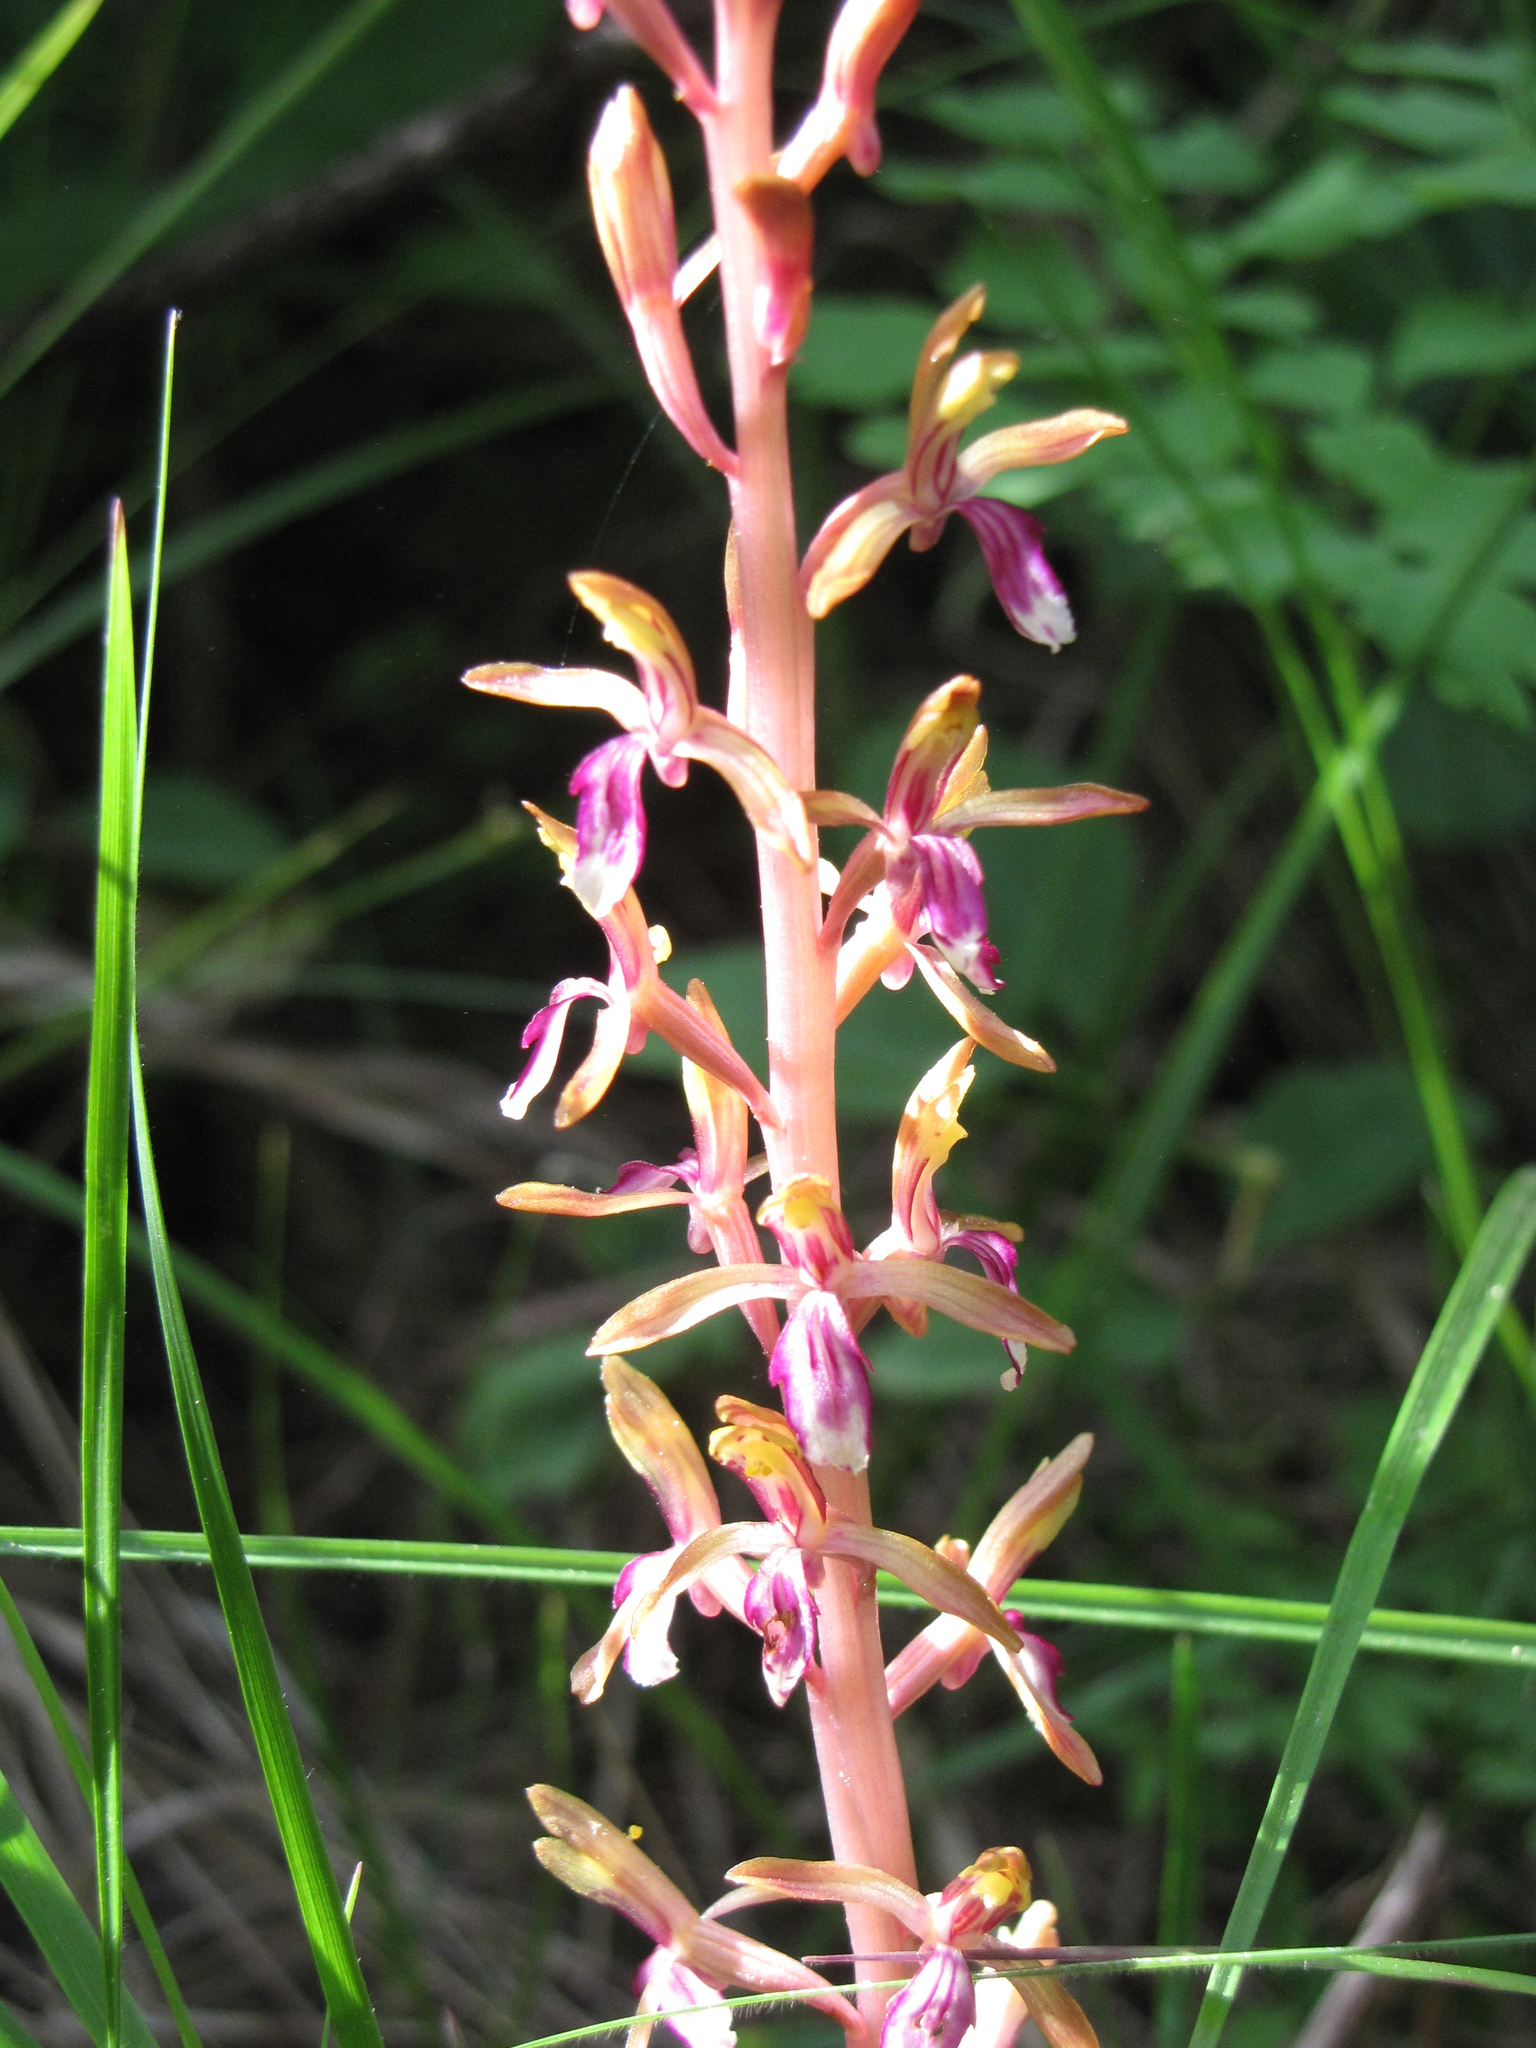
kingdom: Plantae
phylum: Tracheophyta
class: Liliopsida
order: Asparagales
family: Orchidaceae
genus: Corallorhiza
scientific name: Corallorhiza mertensiana
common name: Pacific coralroot
